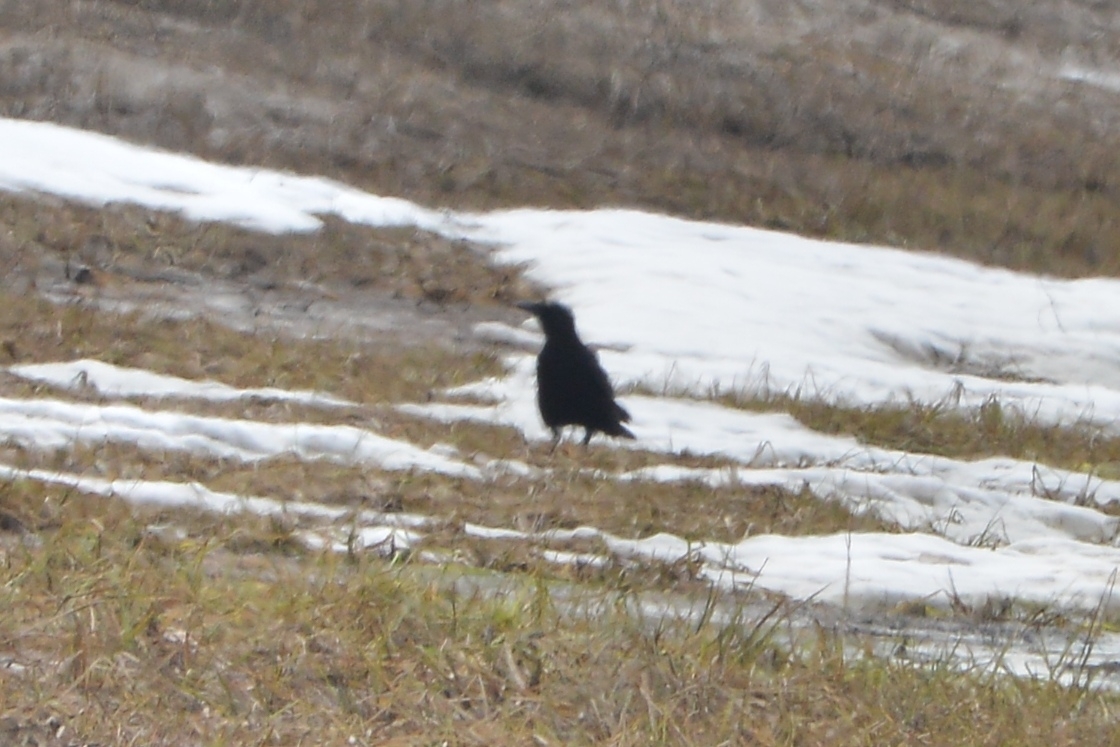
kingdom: Animalia
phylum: Chordata
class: Aves
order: Passeriformes
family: Corvidae
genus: Corvus
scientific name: Corvus corone
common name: Carrion crow
